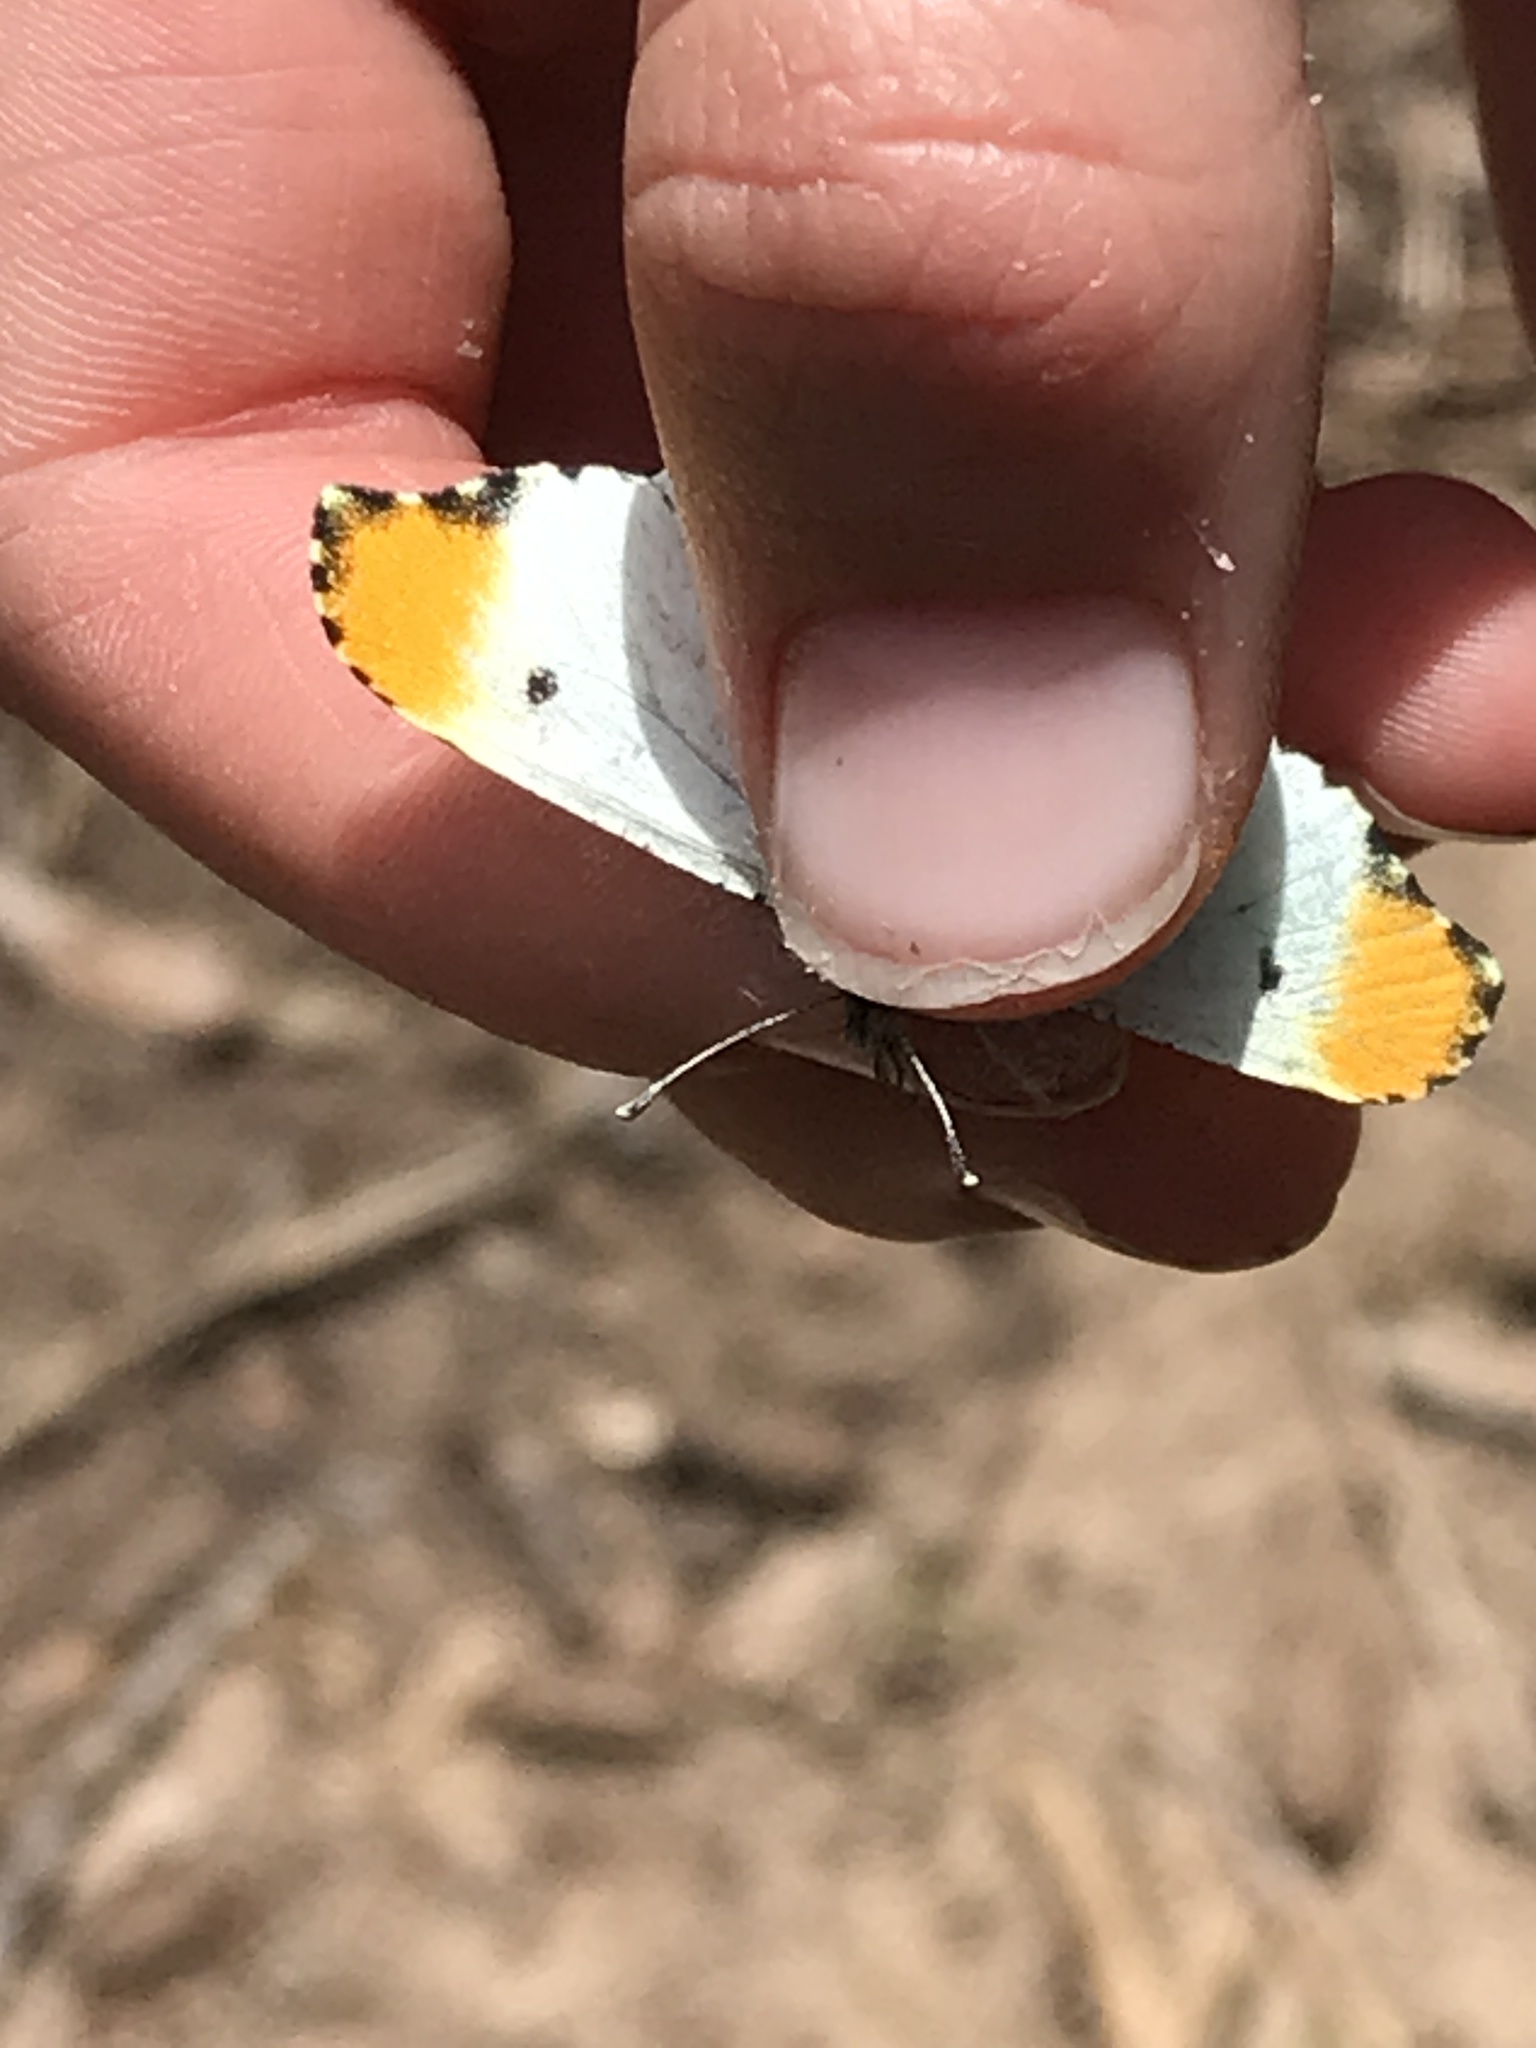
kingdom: Animalia
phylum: Arthropoda
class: Insecta
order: Lepidoptera
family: Pieridae
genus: Anthocharis
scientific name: Anthocharis midea
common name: Falcate orangetip
